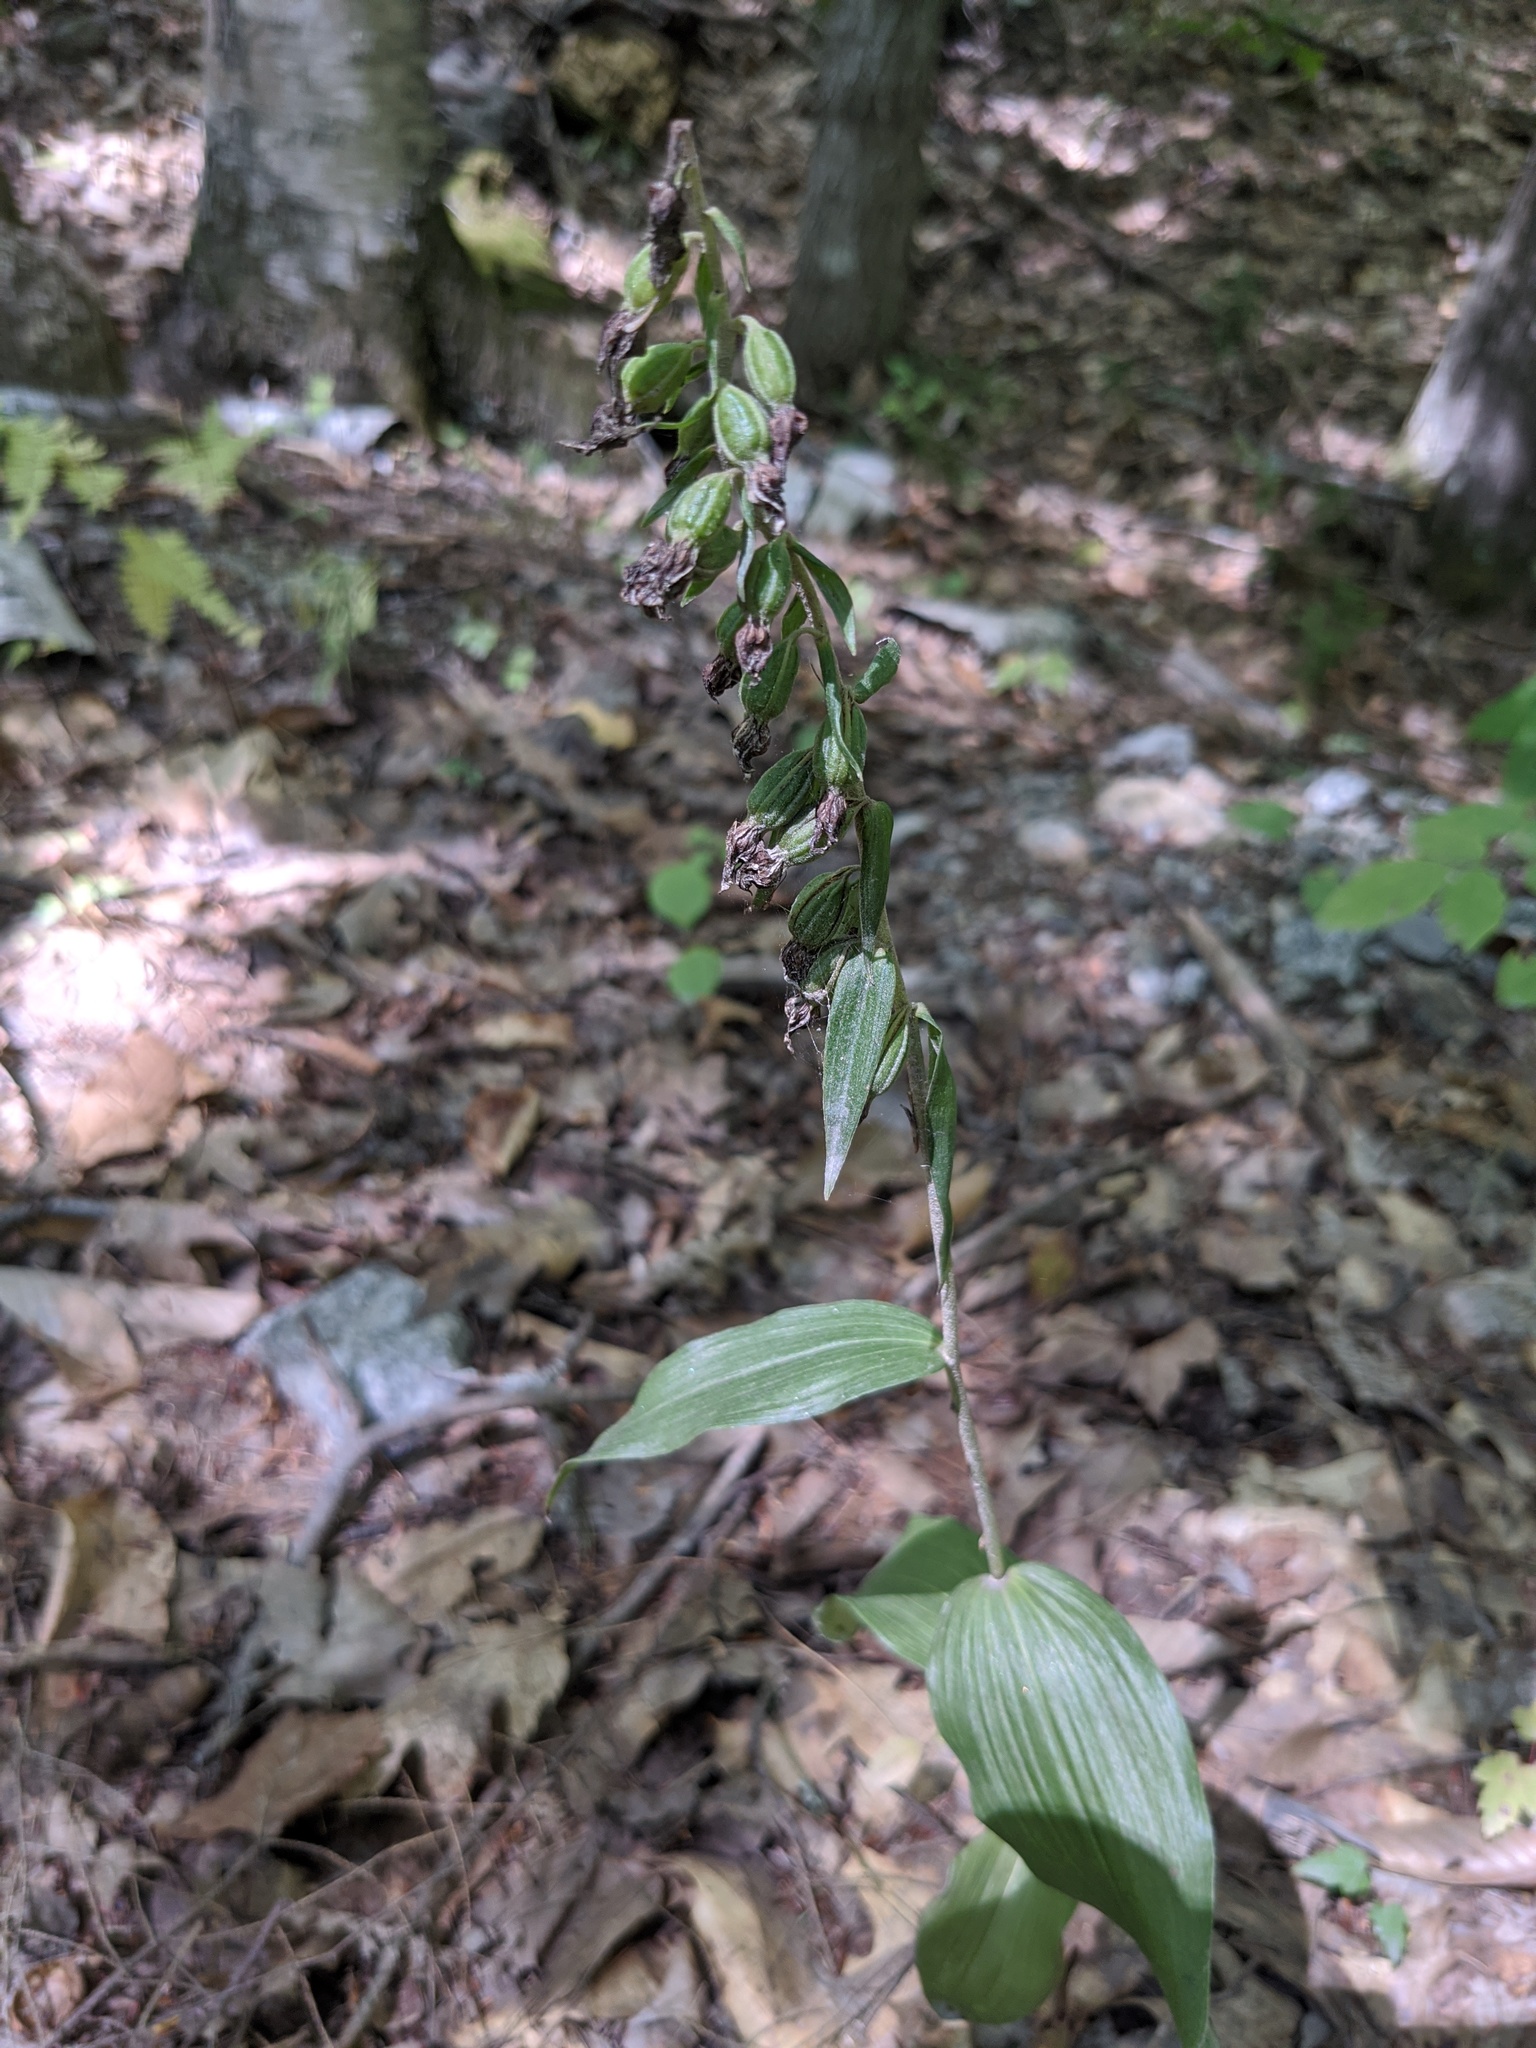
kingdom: Plantae
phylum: Tracheophyta
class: Liliopsida
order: Asparagales
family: Orchidaceae
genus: Epipactis
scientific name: Epipactis helleborine
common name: Broad-leaved helleborine
